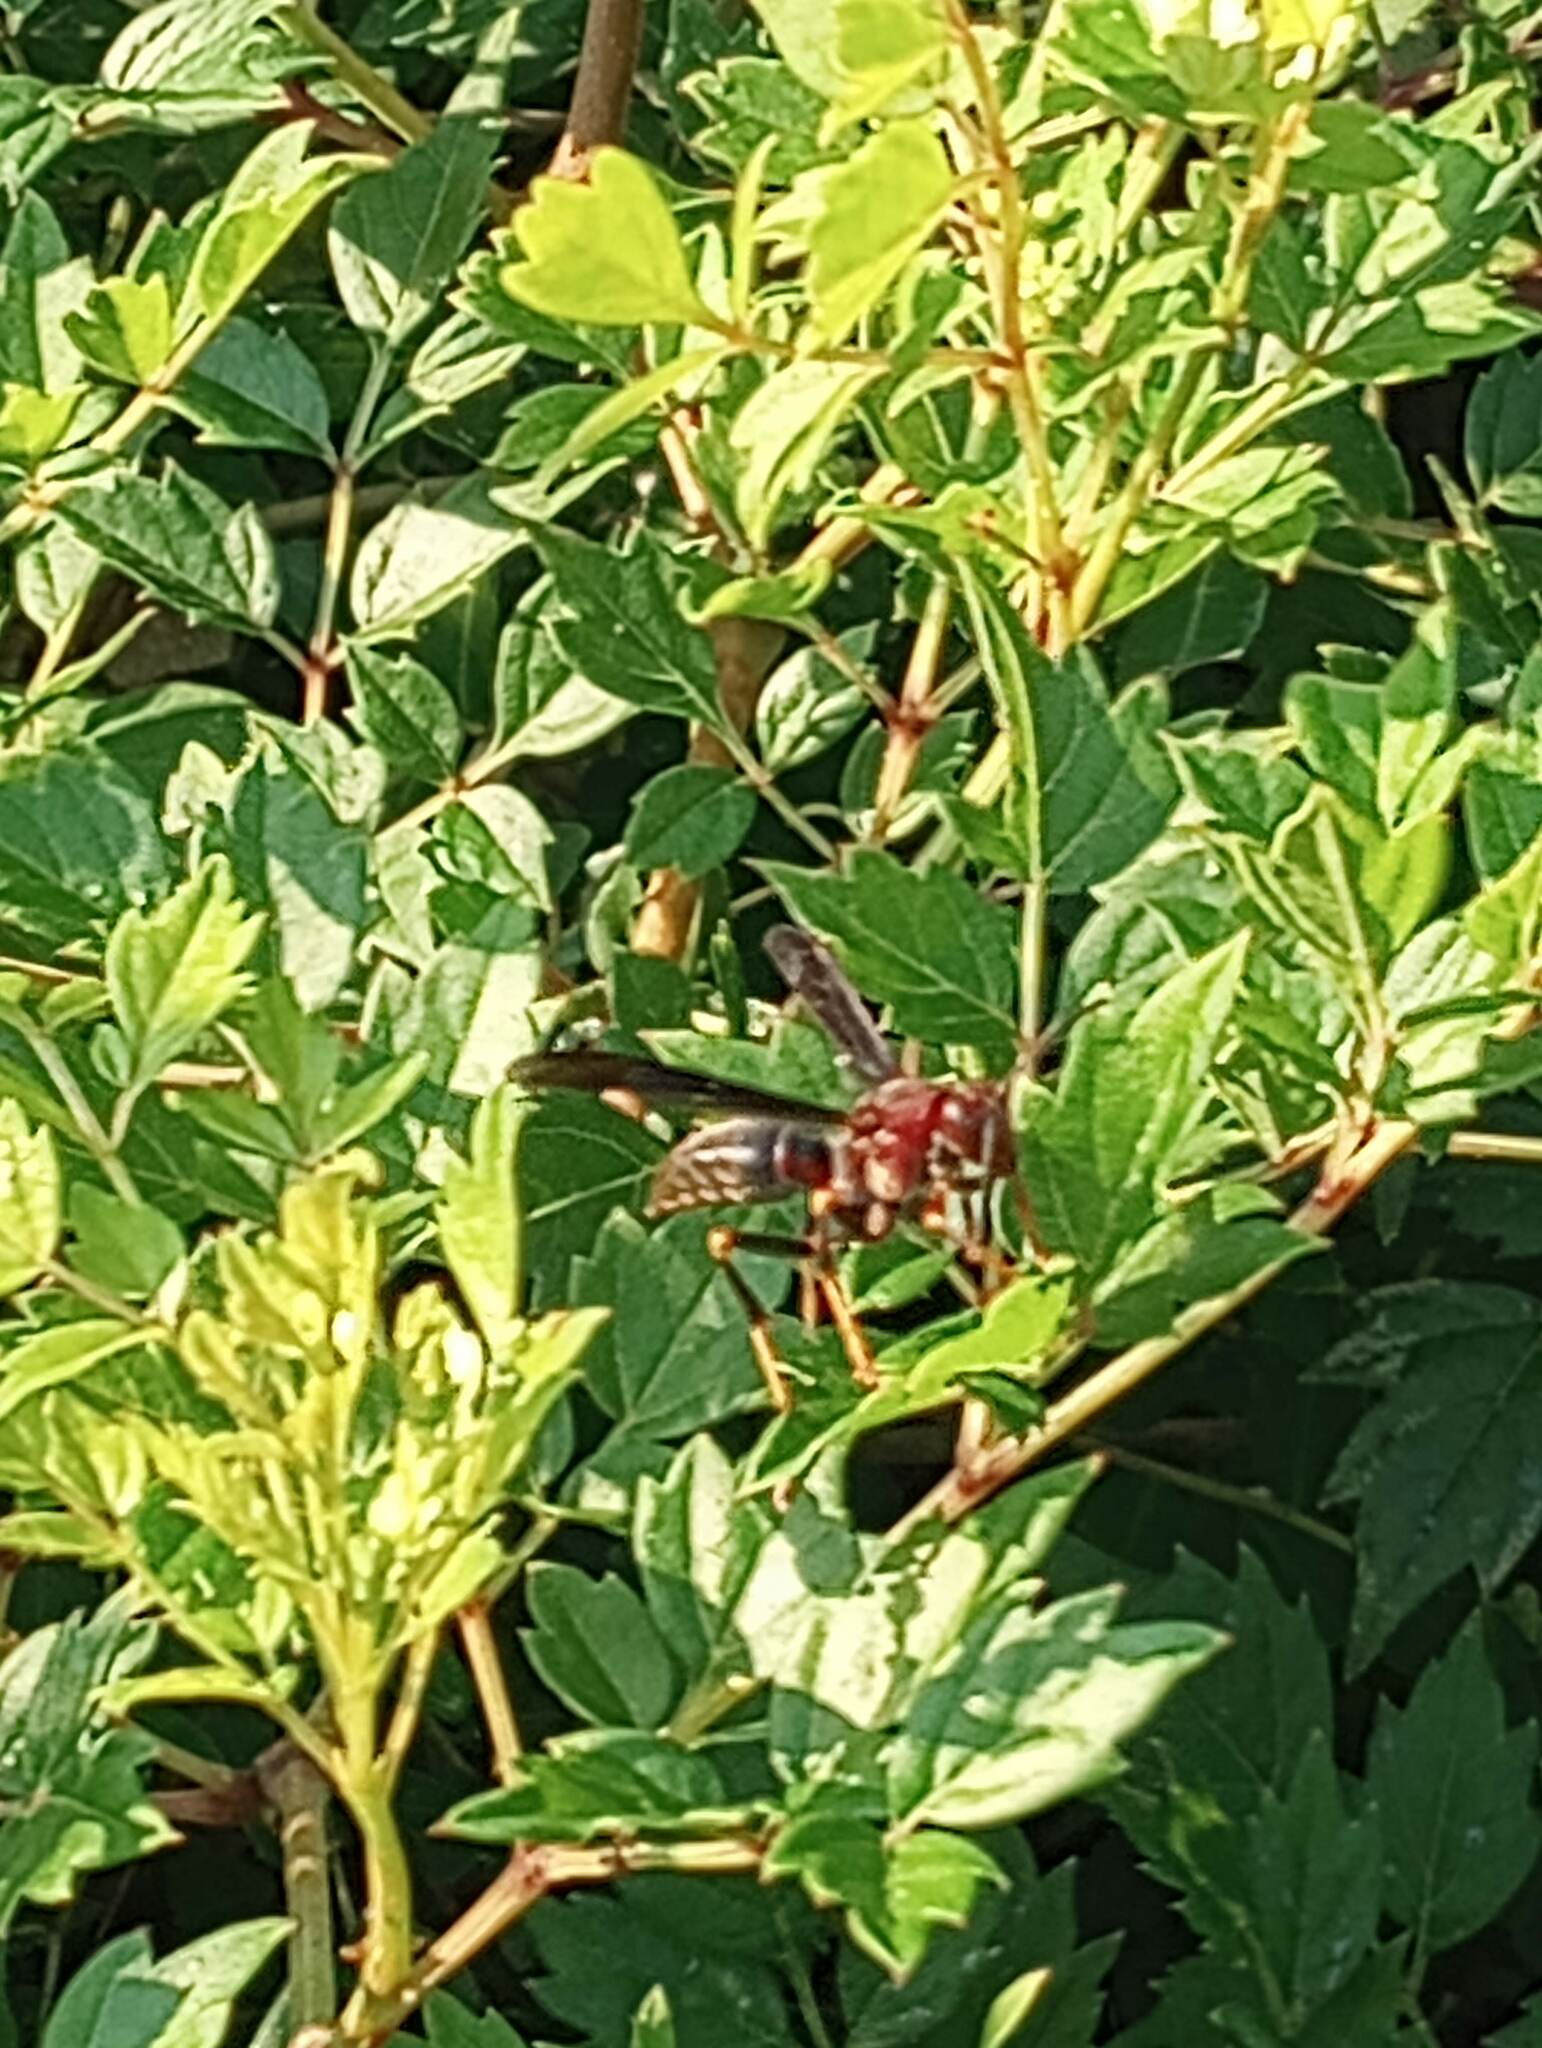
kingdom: Animalia
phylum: Arthropoda
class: Insecta
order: Hymenoptera
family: Eumenidae
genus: Polistes
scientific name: Polistes metricus
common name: Metric paper wasp
